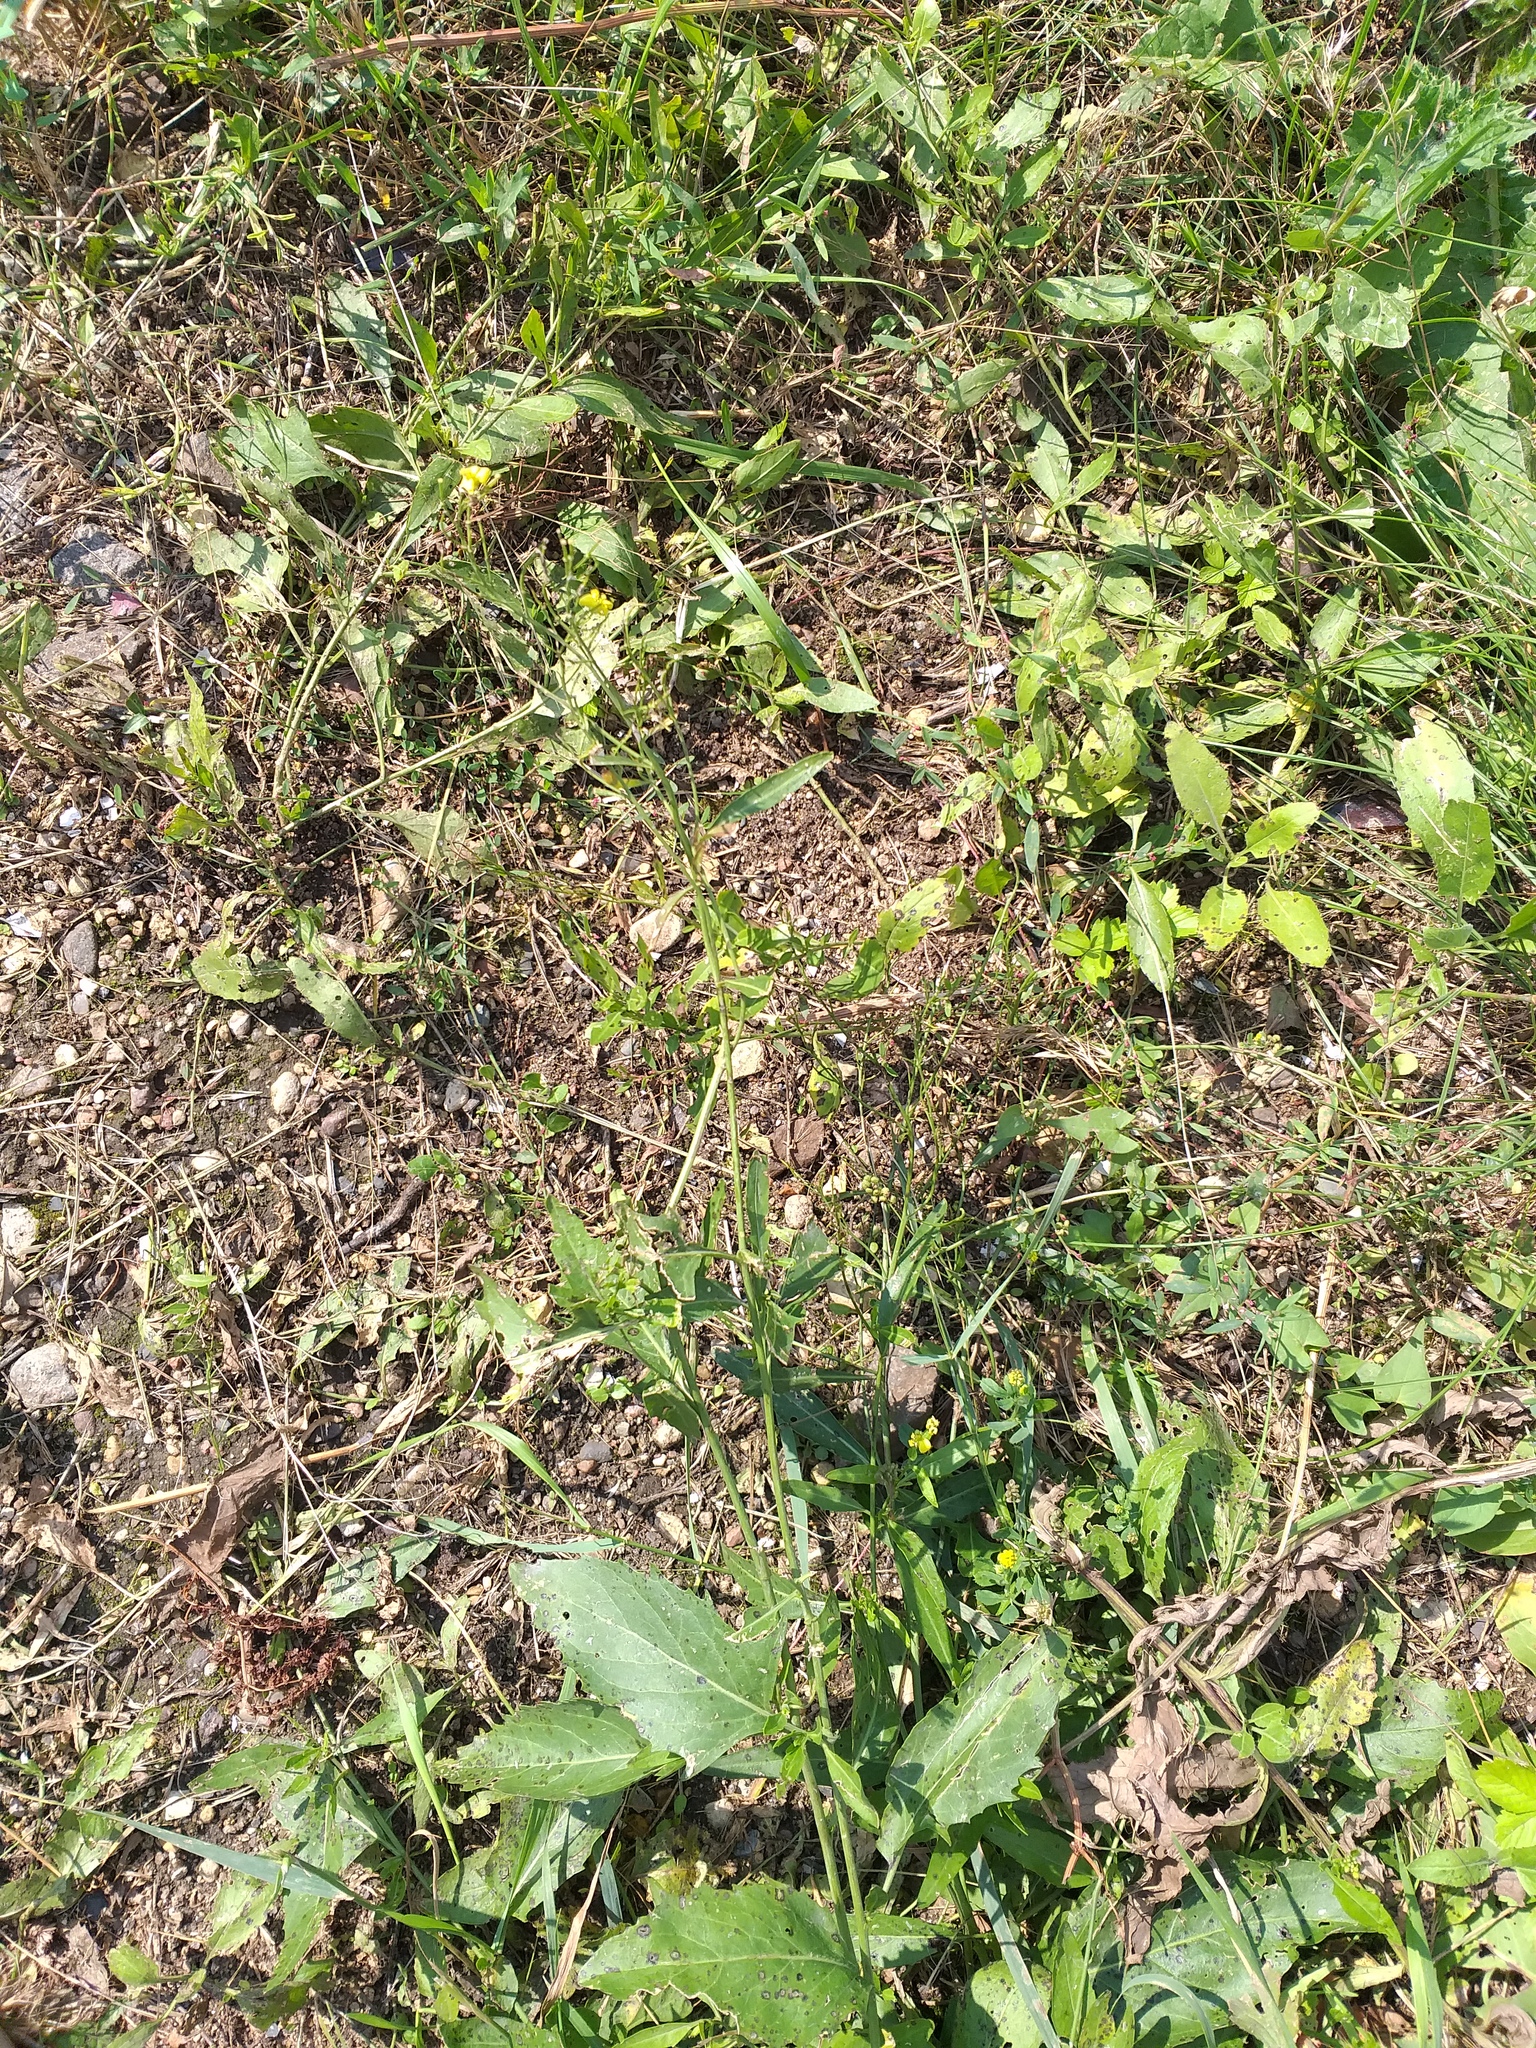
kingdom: Plantae
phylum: Tracheophyta
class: Magnoliopsida
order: Brassicales
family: Brassicaceae
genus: Sisymbrium
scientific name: Sisymbrium volgense
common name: Russian mustard
